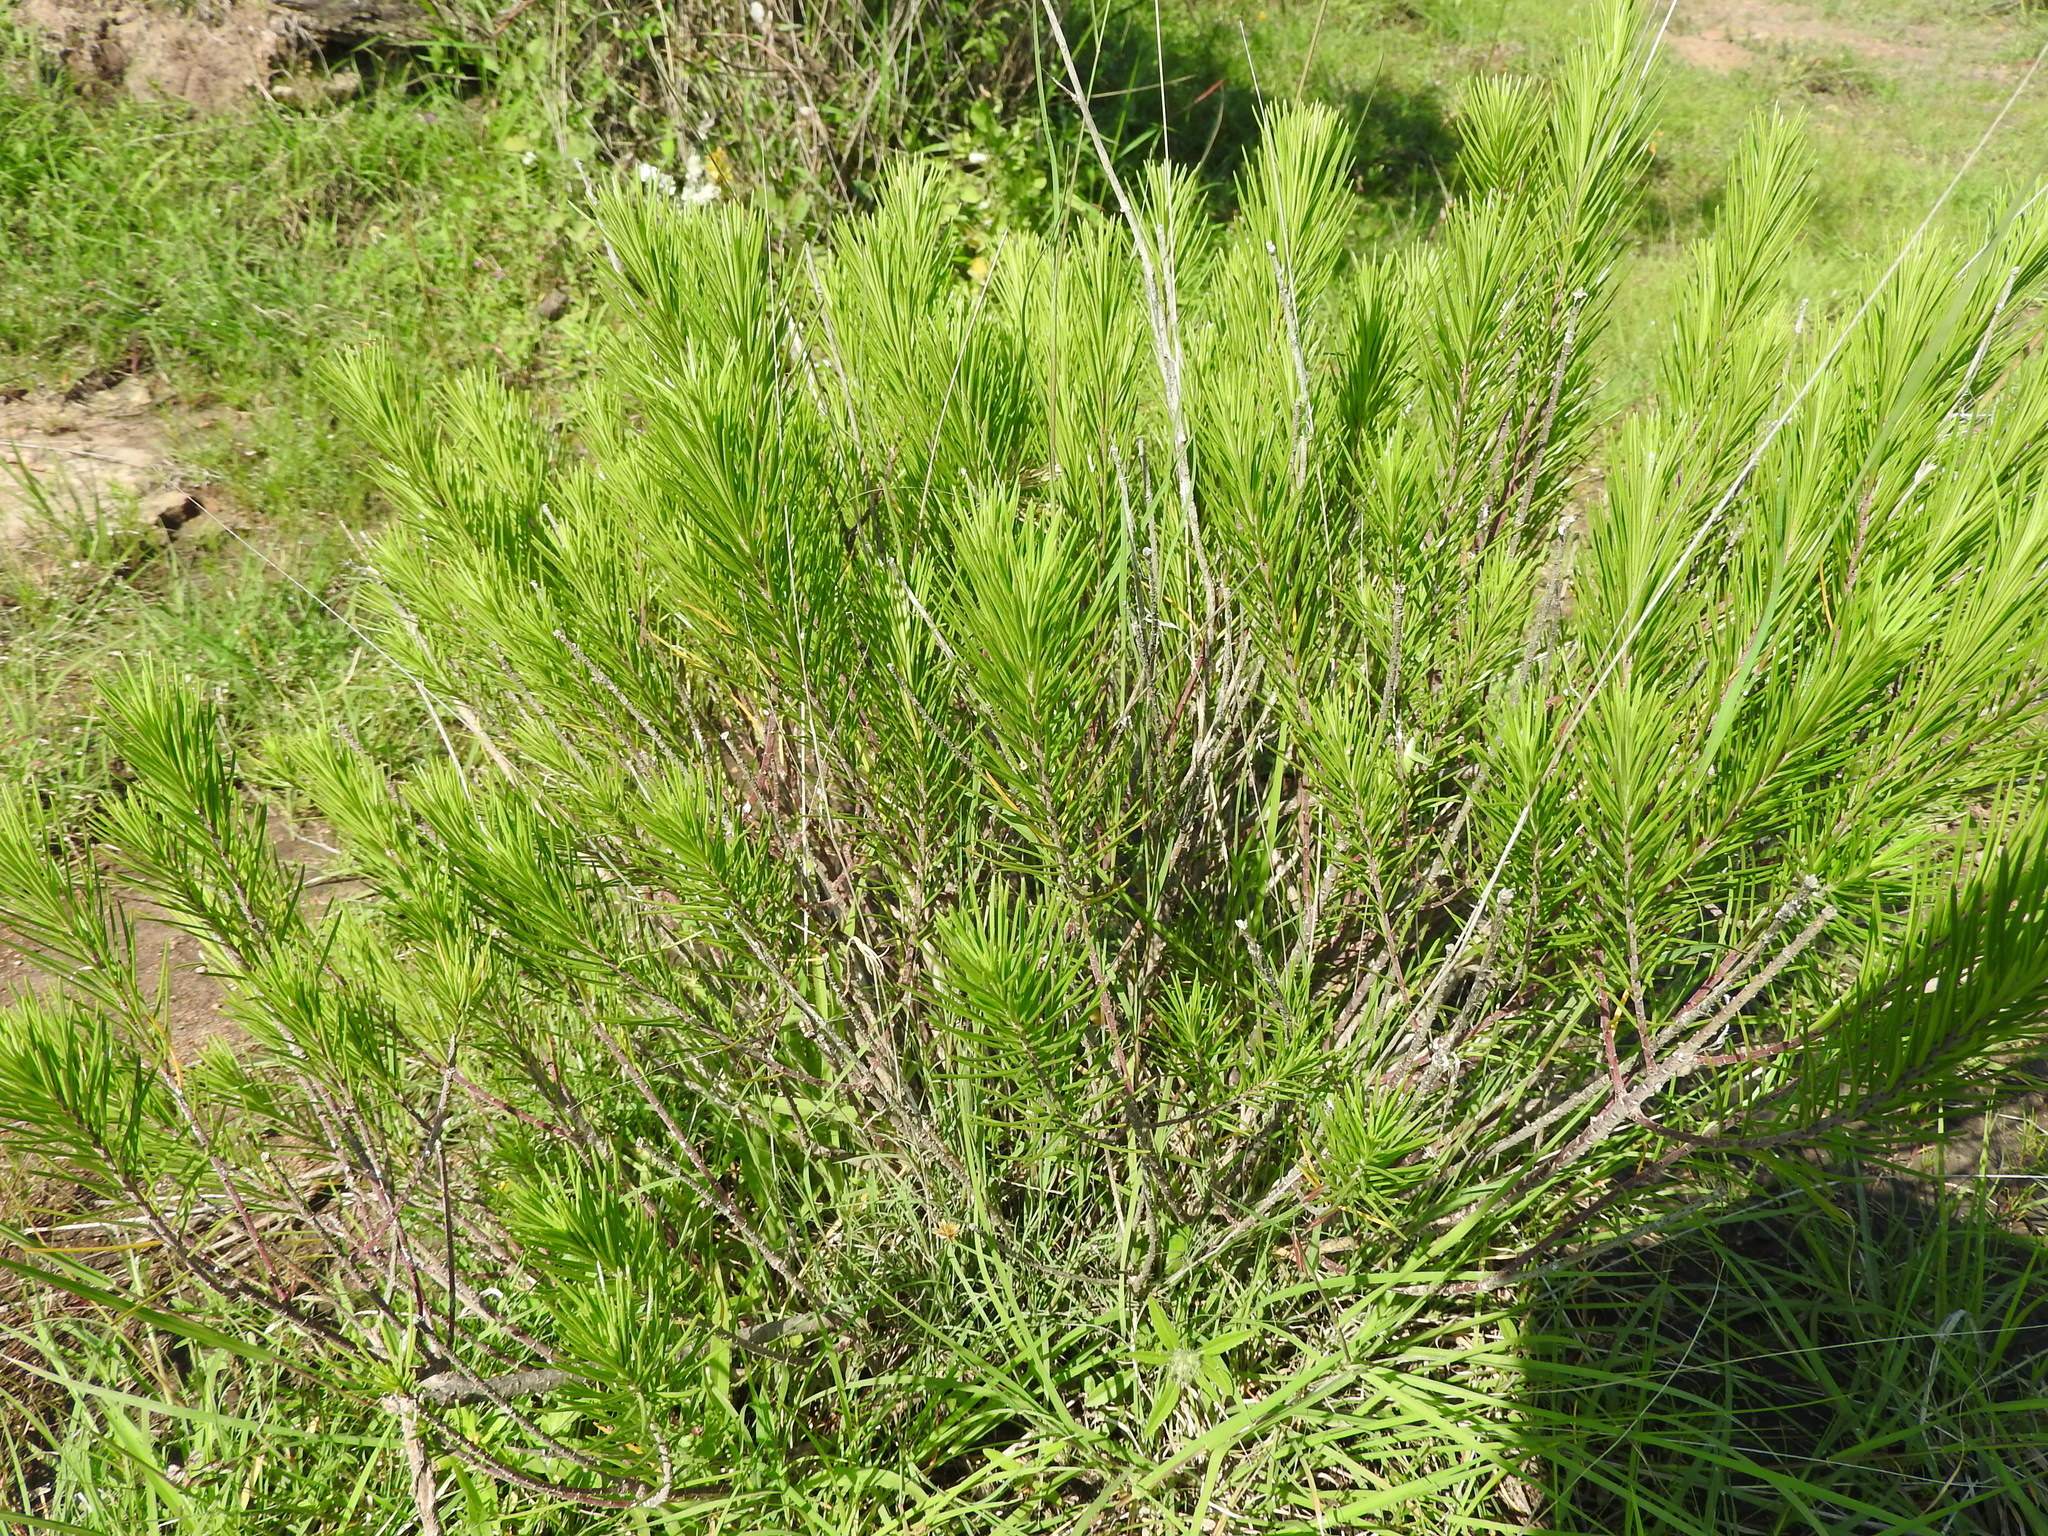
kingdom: Plantae
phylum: Tracheophyta
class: Magnoliopsida
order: Gentianales
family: Apocynaceae
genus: Asclepias
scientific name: Asclepias linaria
